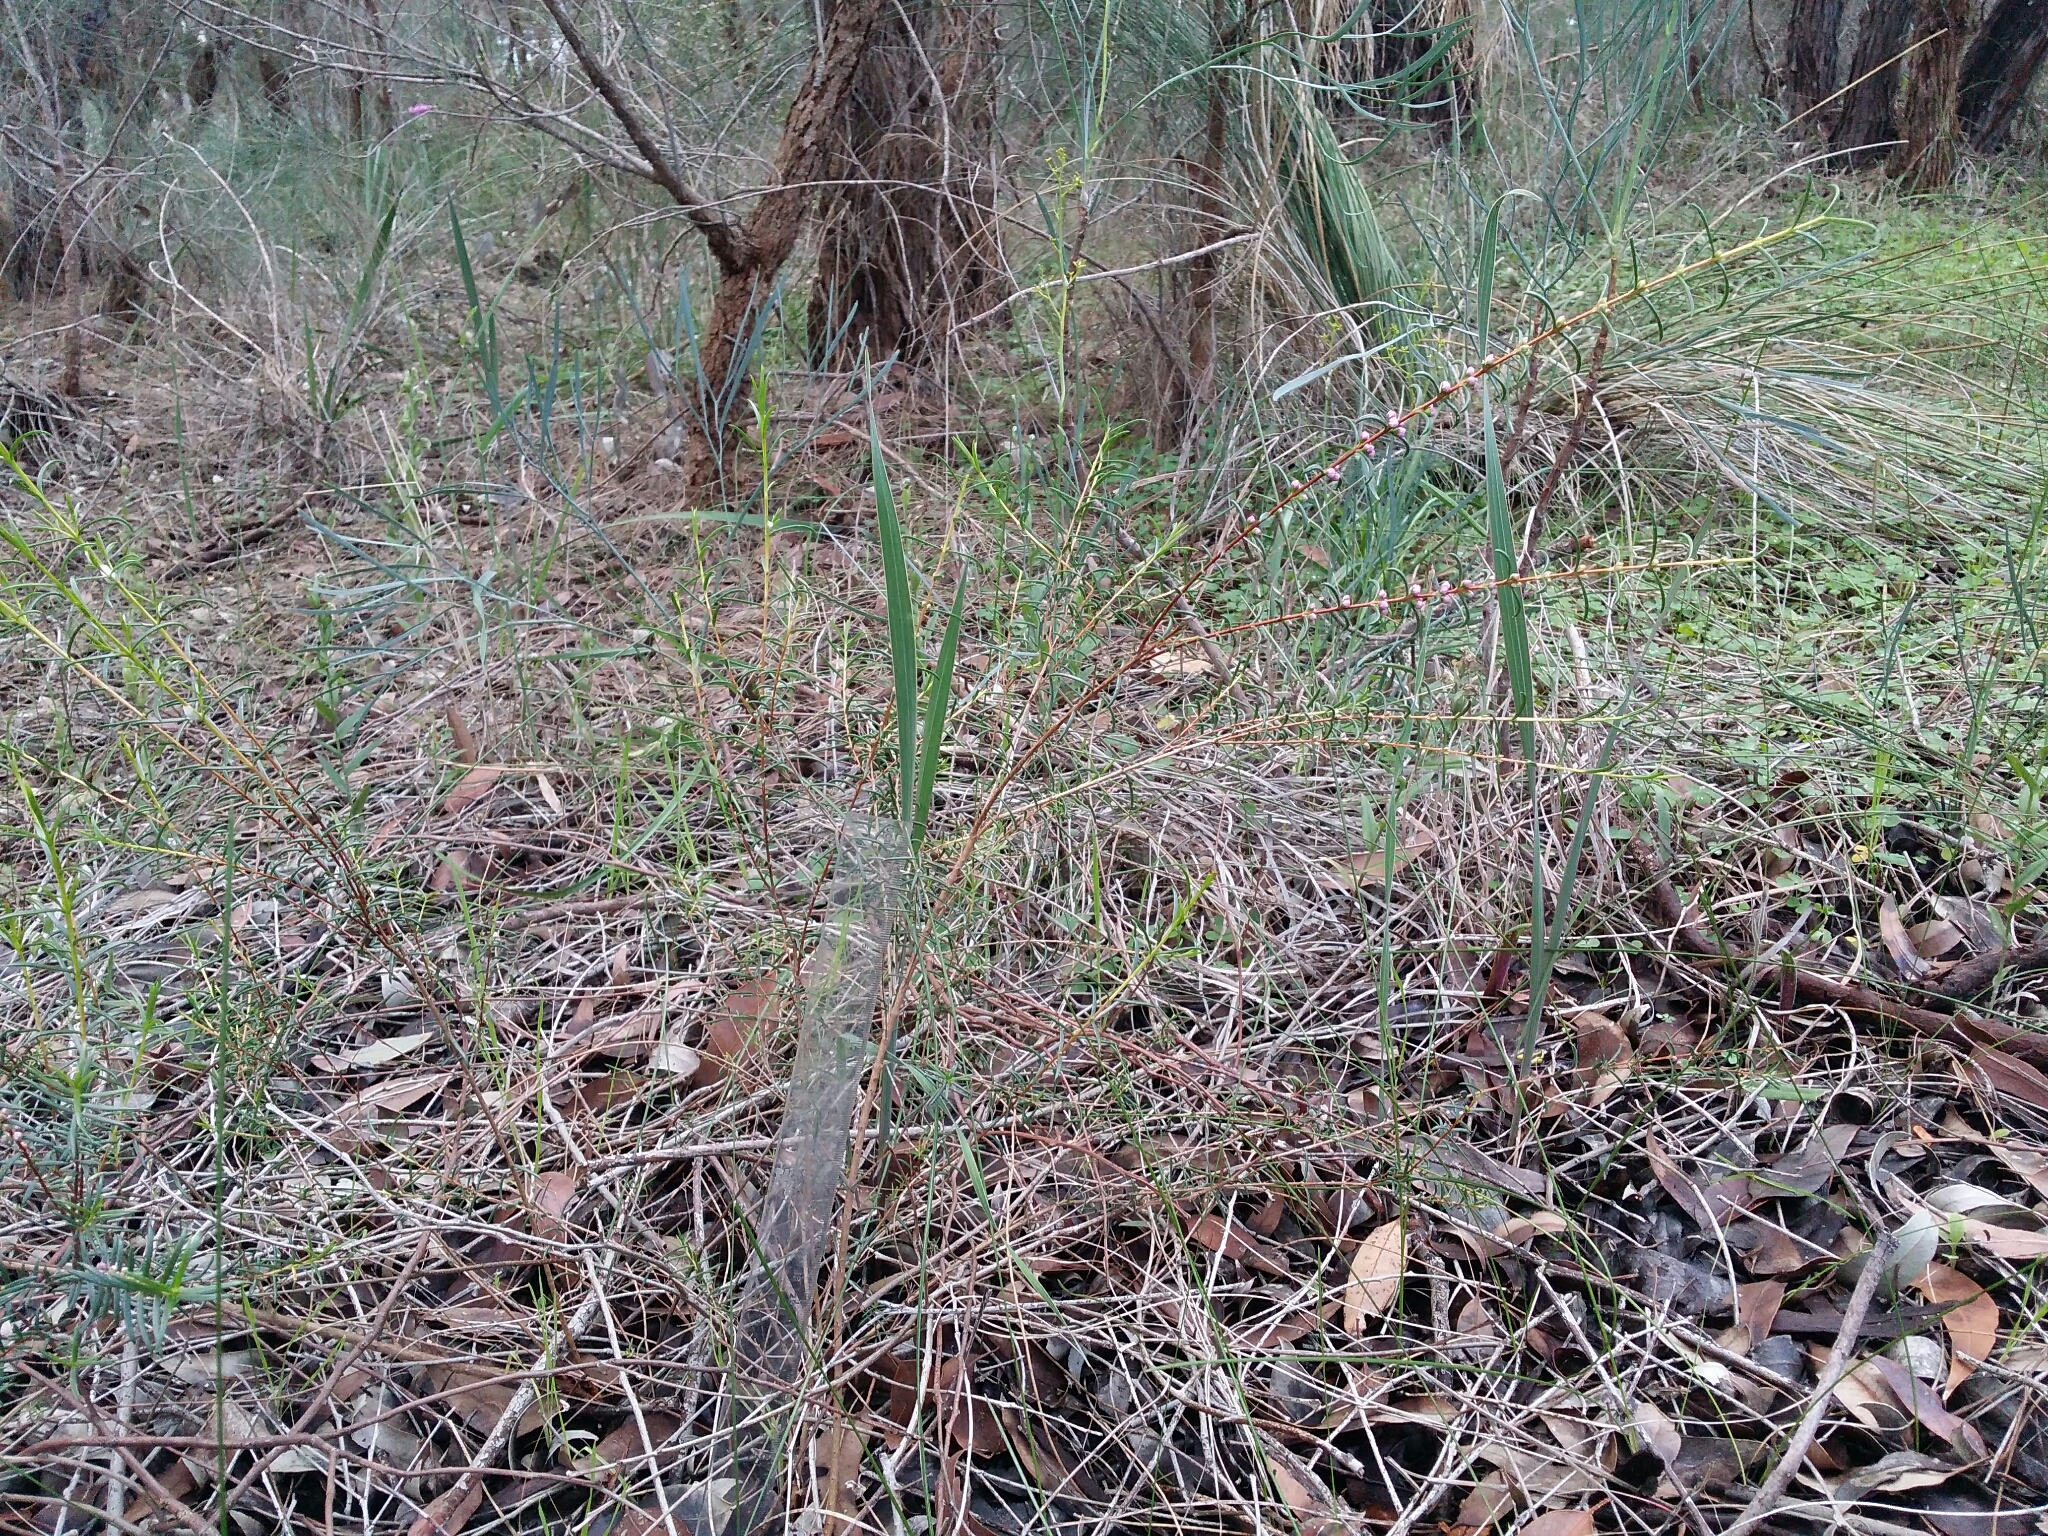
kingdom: Plantae
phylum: Tracheophyta
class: Magnoliopsida
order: Myrtales
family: Myrtaceae
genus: Hypocalymma
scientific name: Hypocalymma robustum
